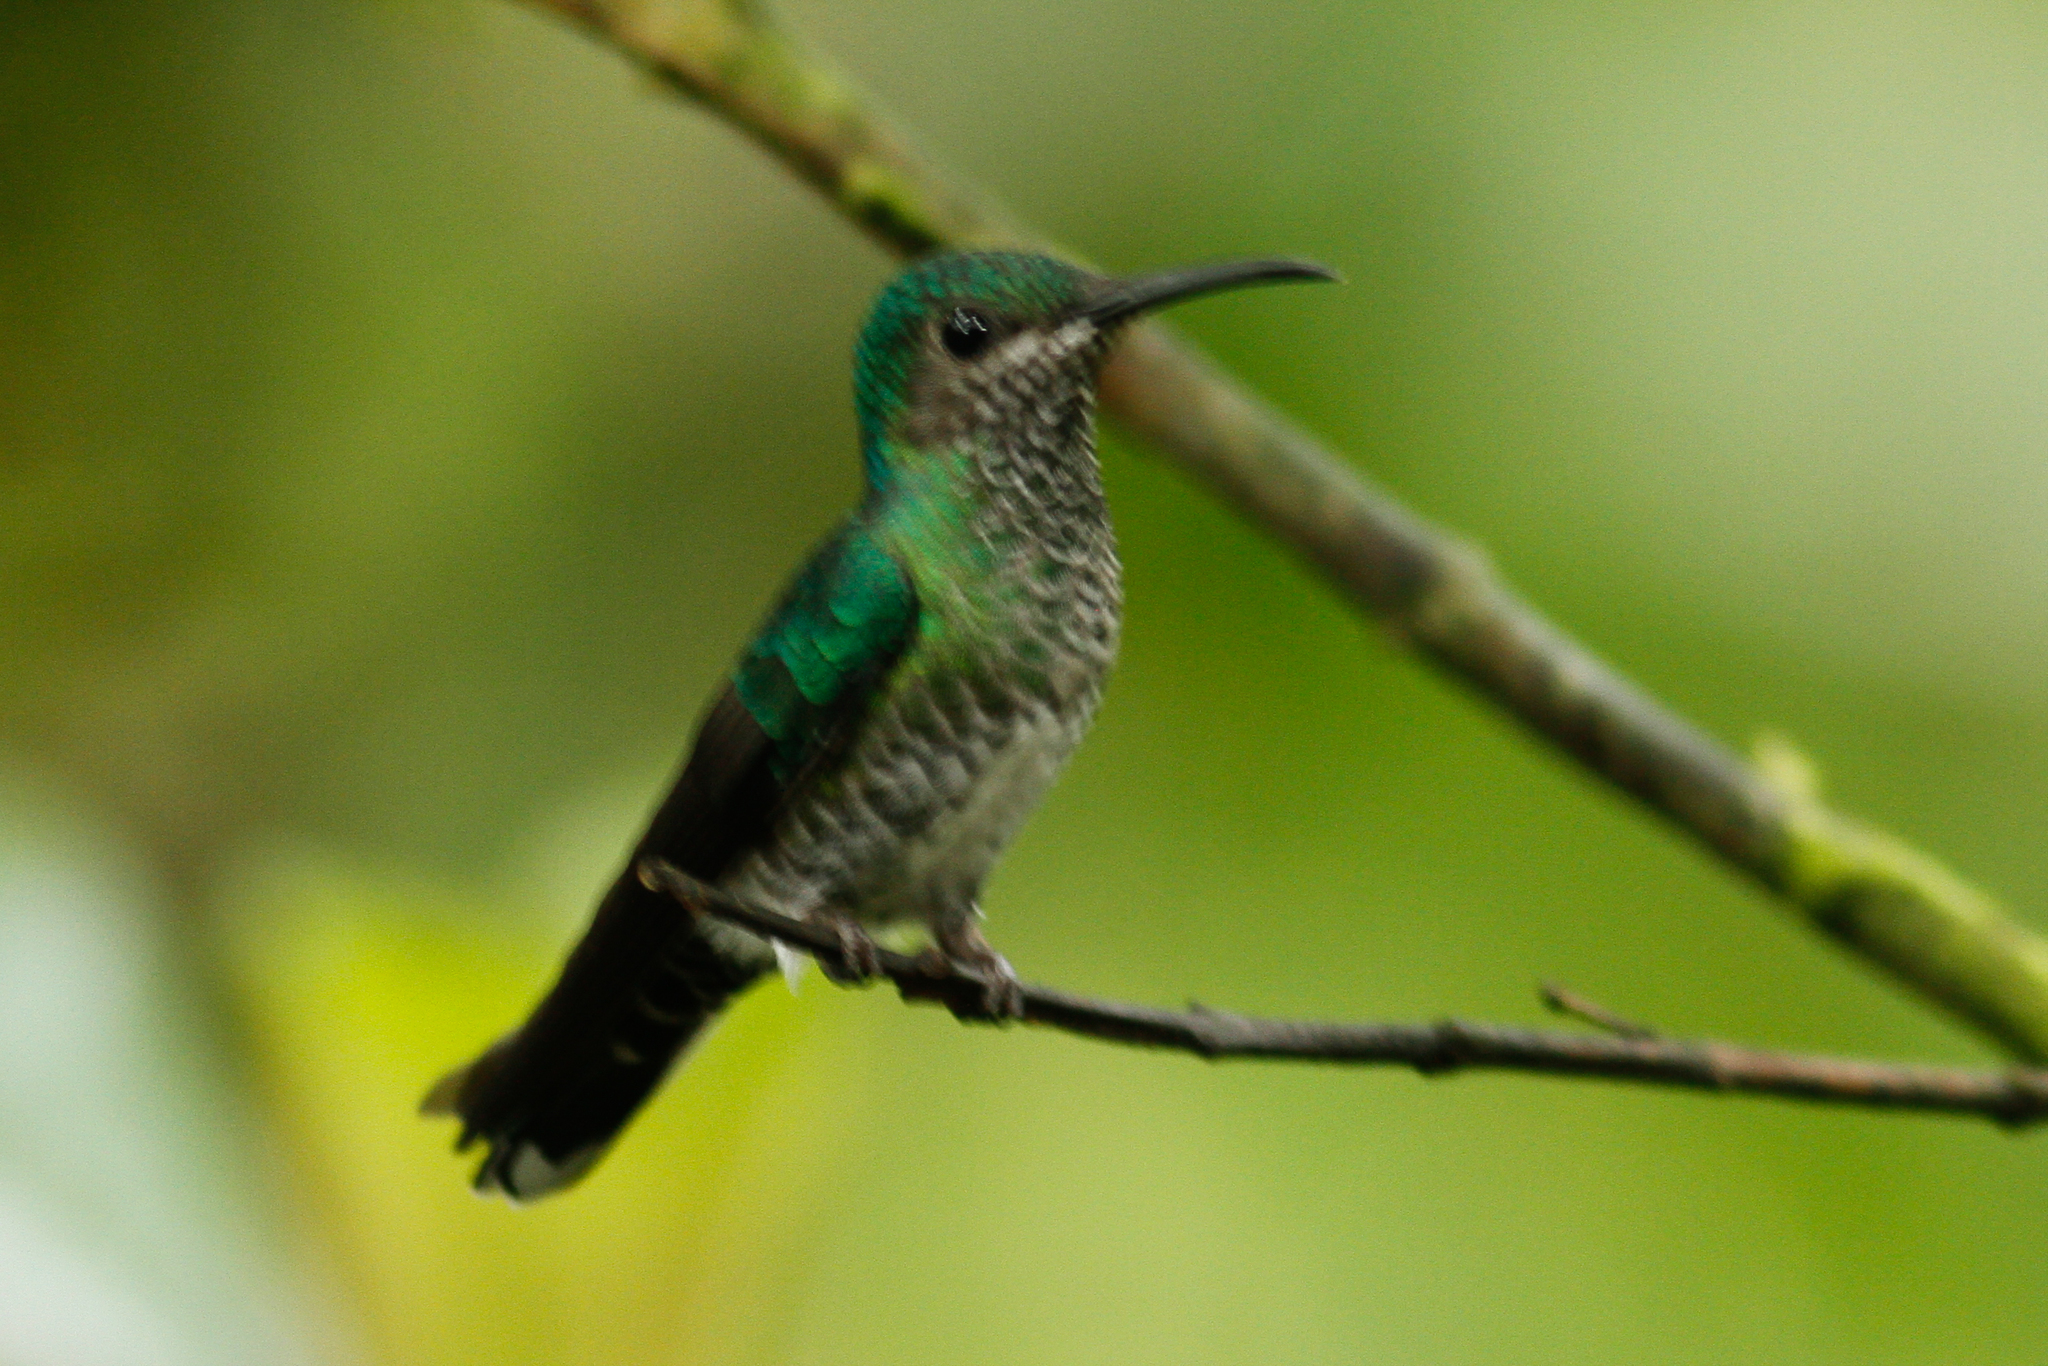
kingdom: Animalia
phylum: Chordata
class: Aves
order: Apodiformes
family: Trochilidae
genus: Florisuga
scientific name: Florisuga mellivora
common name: White-necked jacobin
